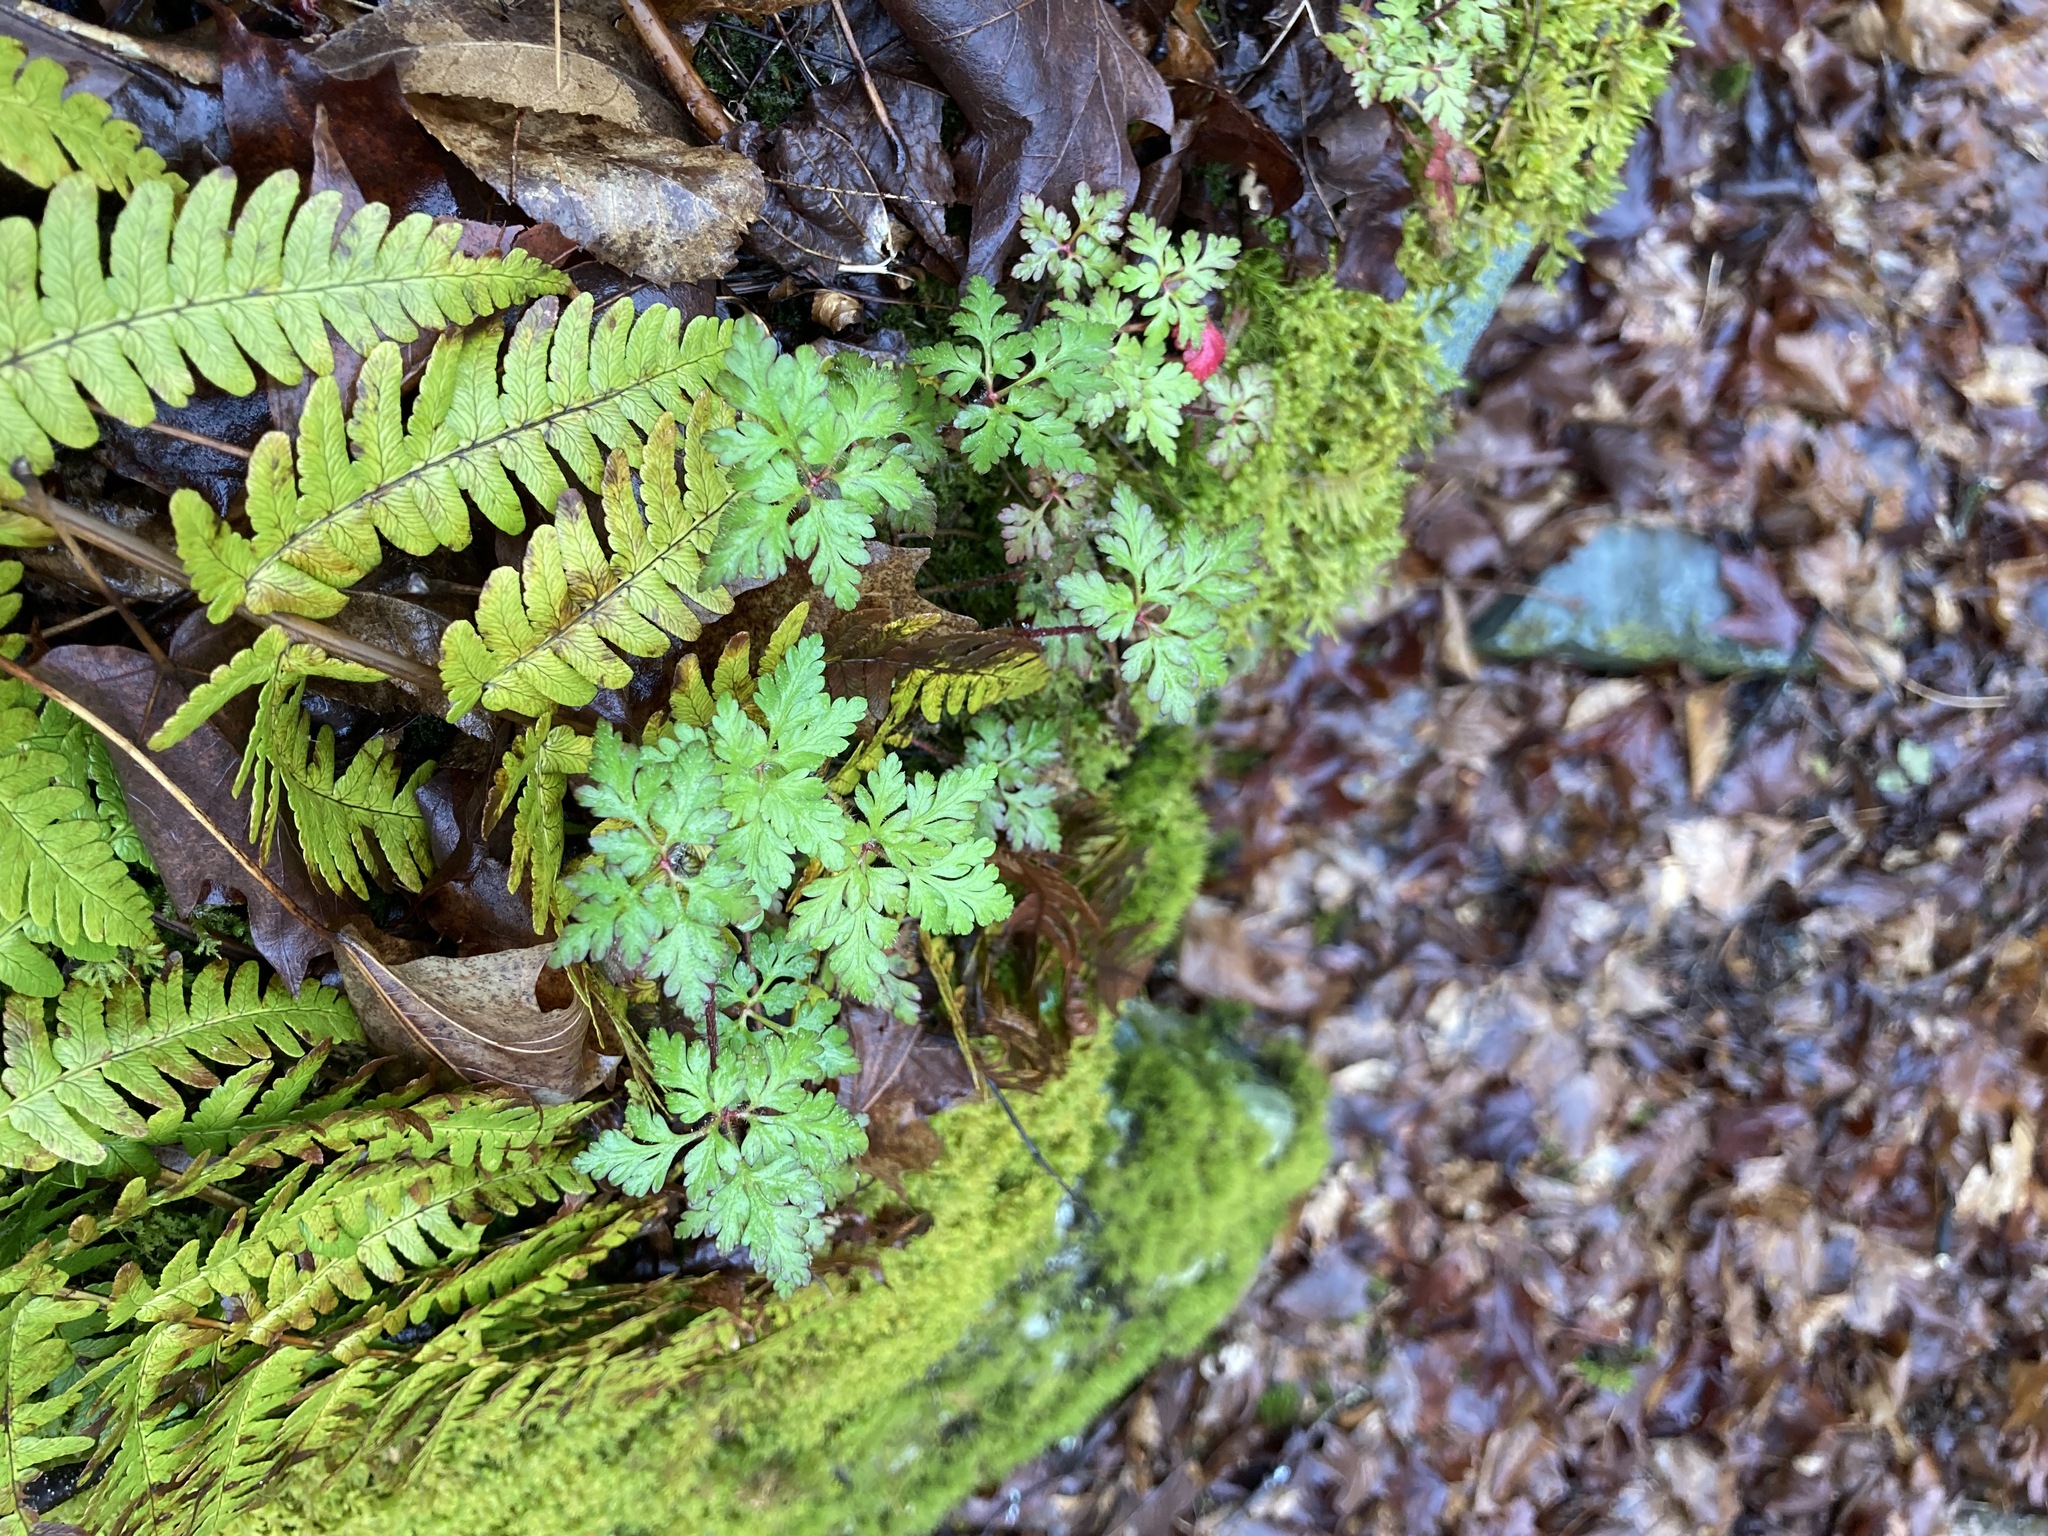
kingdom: Plantae
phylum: Tracheophyta
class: Magnoliopsida
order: Geraniales
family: Geraniaceae
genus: Geranium
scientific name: Geranium robertianum
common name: Herb-robert
